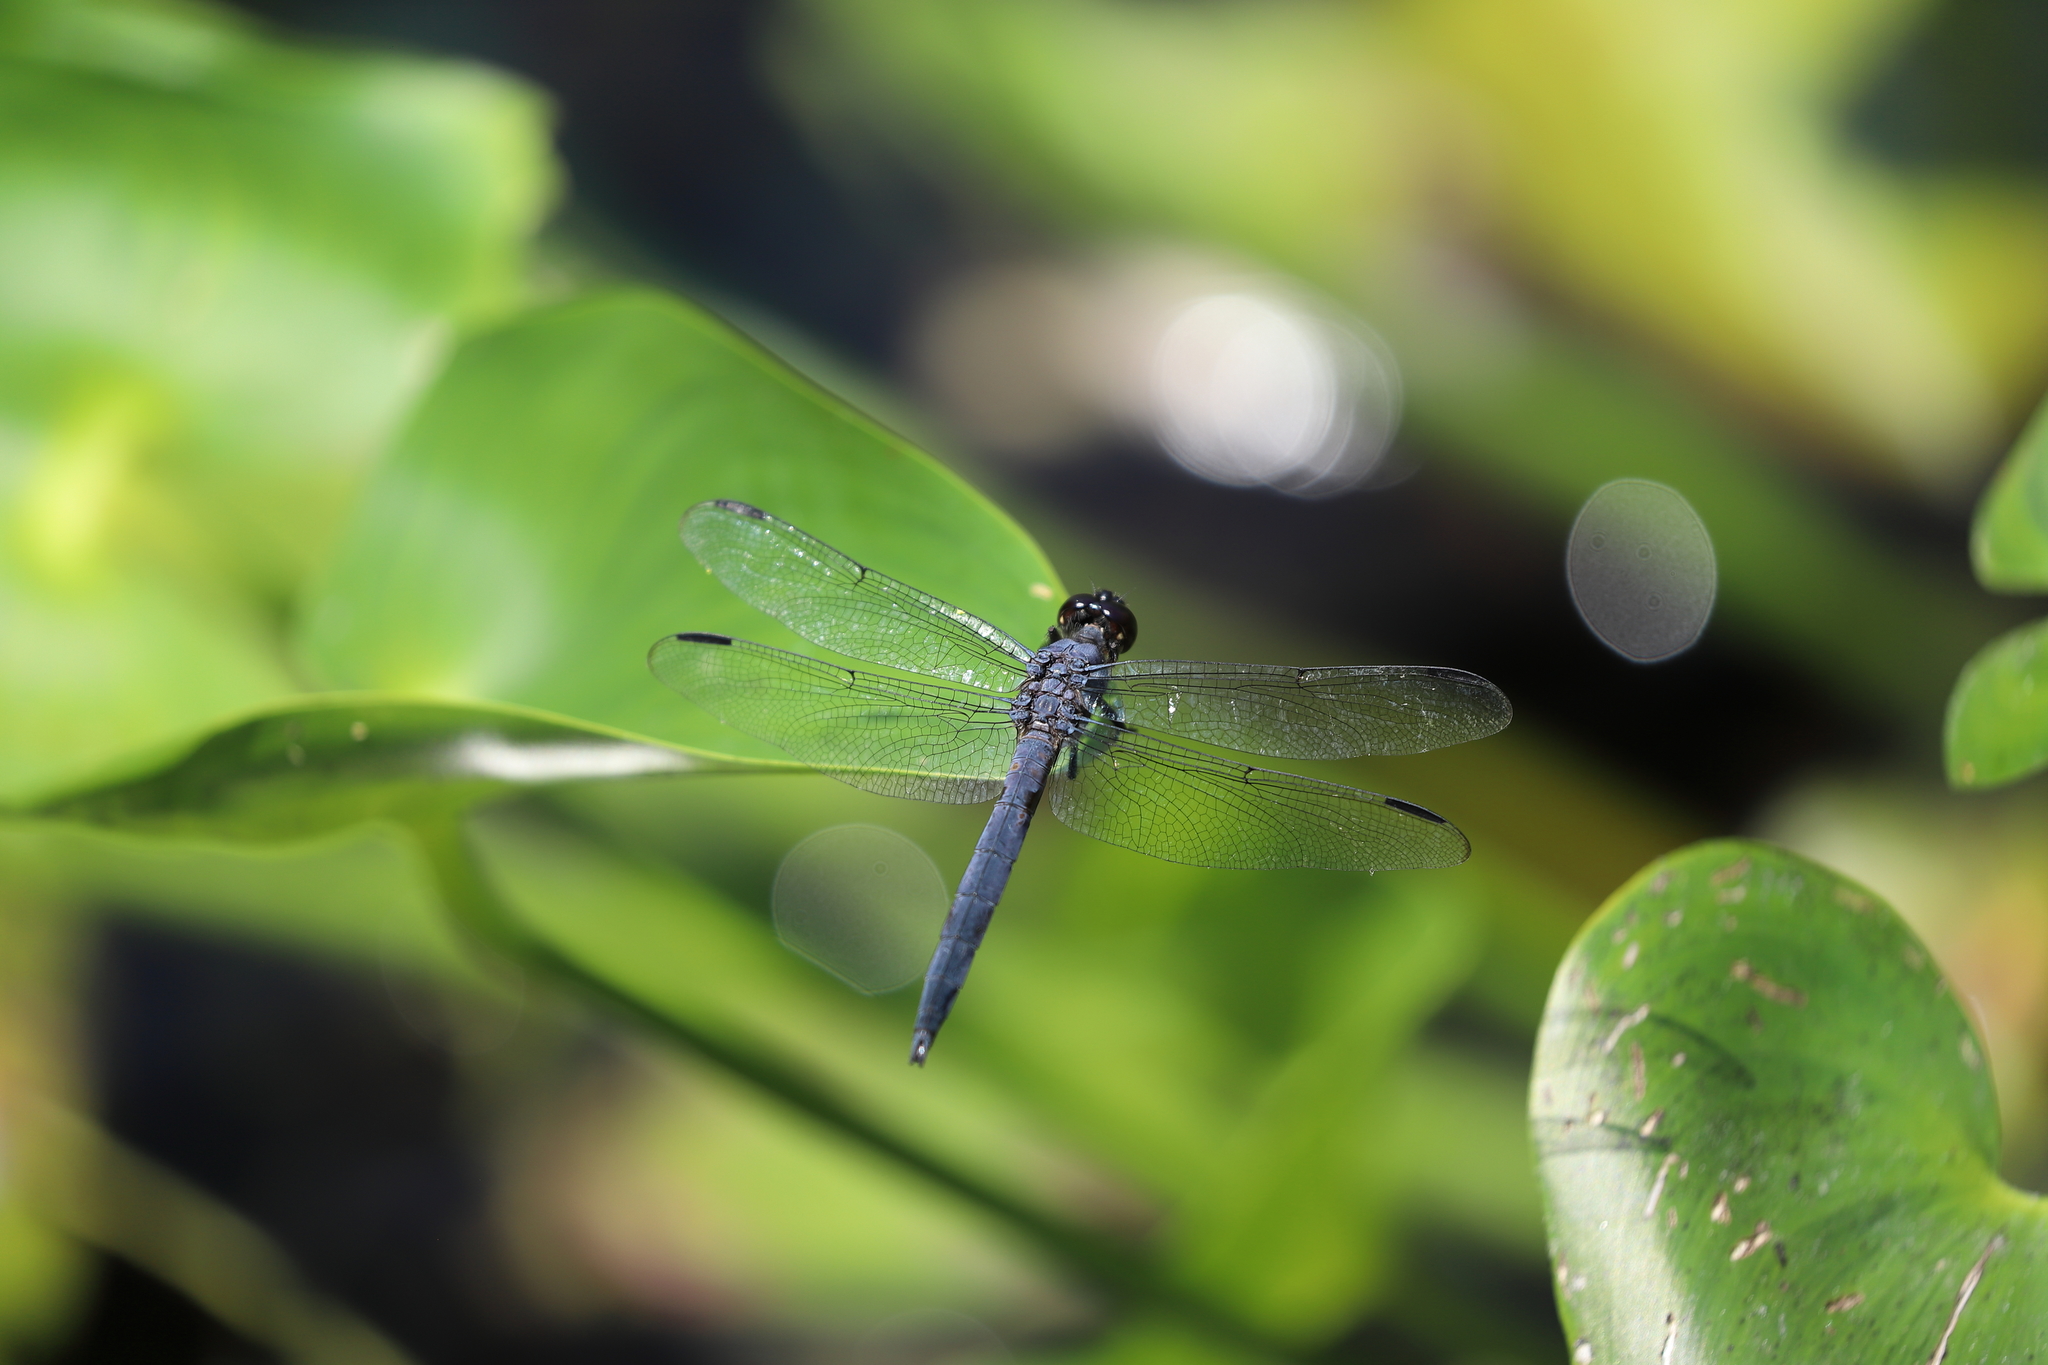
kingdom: Animalia
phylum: Arthropoda
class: Insecta
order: Odonata
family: Libellulidae
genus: Libellula
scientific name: Libellula incesta
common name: Slaty skimmer
